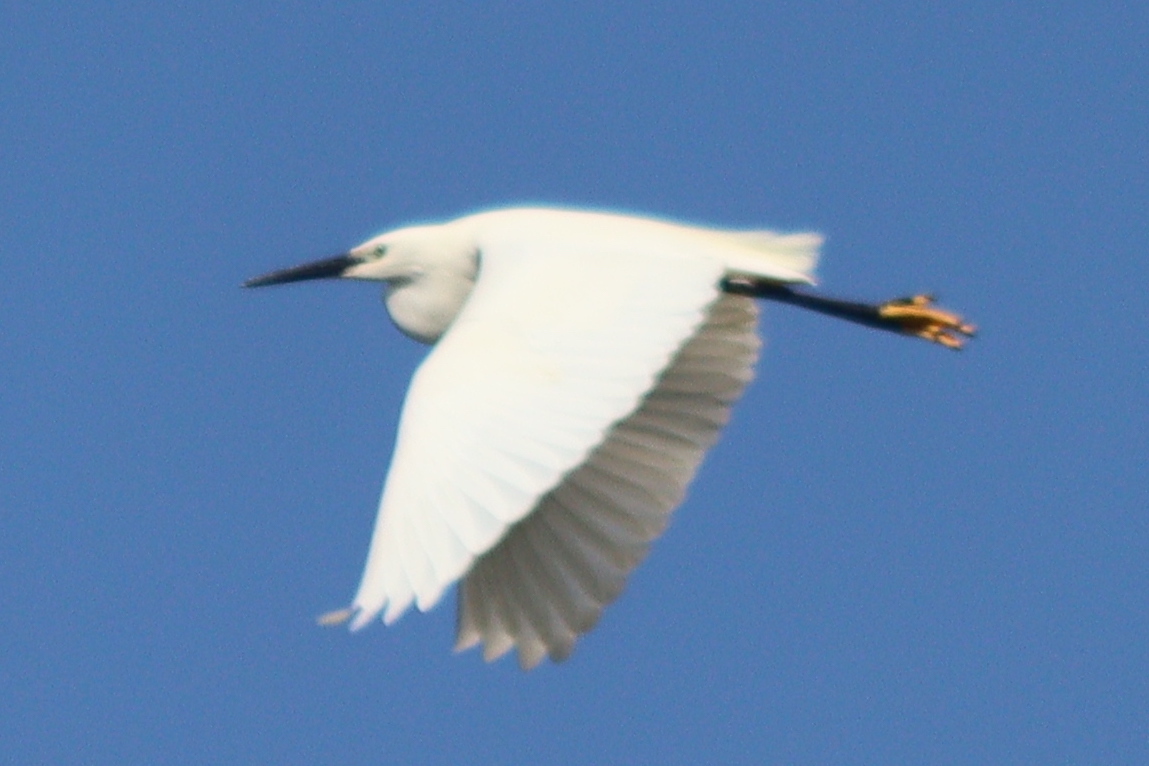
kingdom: Animalia
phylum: Chordata
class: Aves
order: Pelecaniformes
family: Ardeidae
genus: Egretta
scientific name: Egretta garzetta
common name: Little egret
